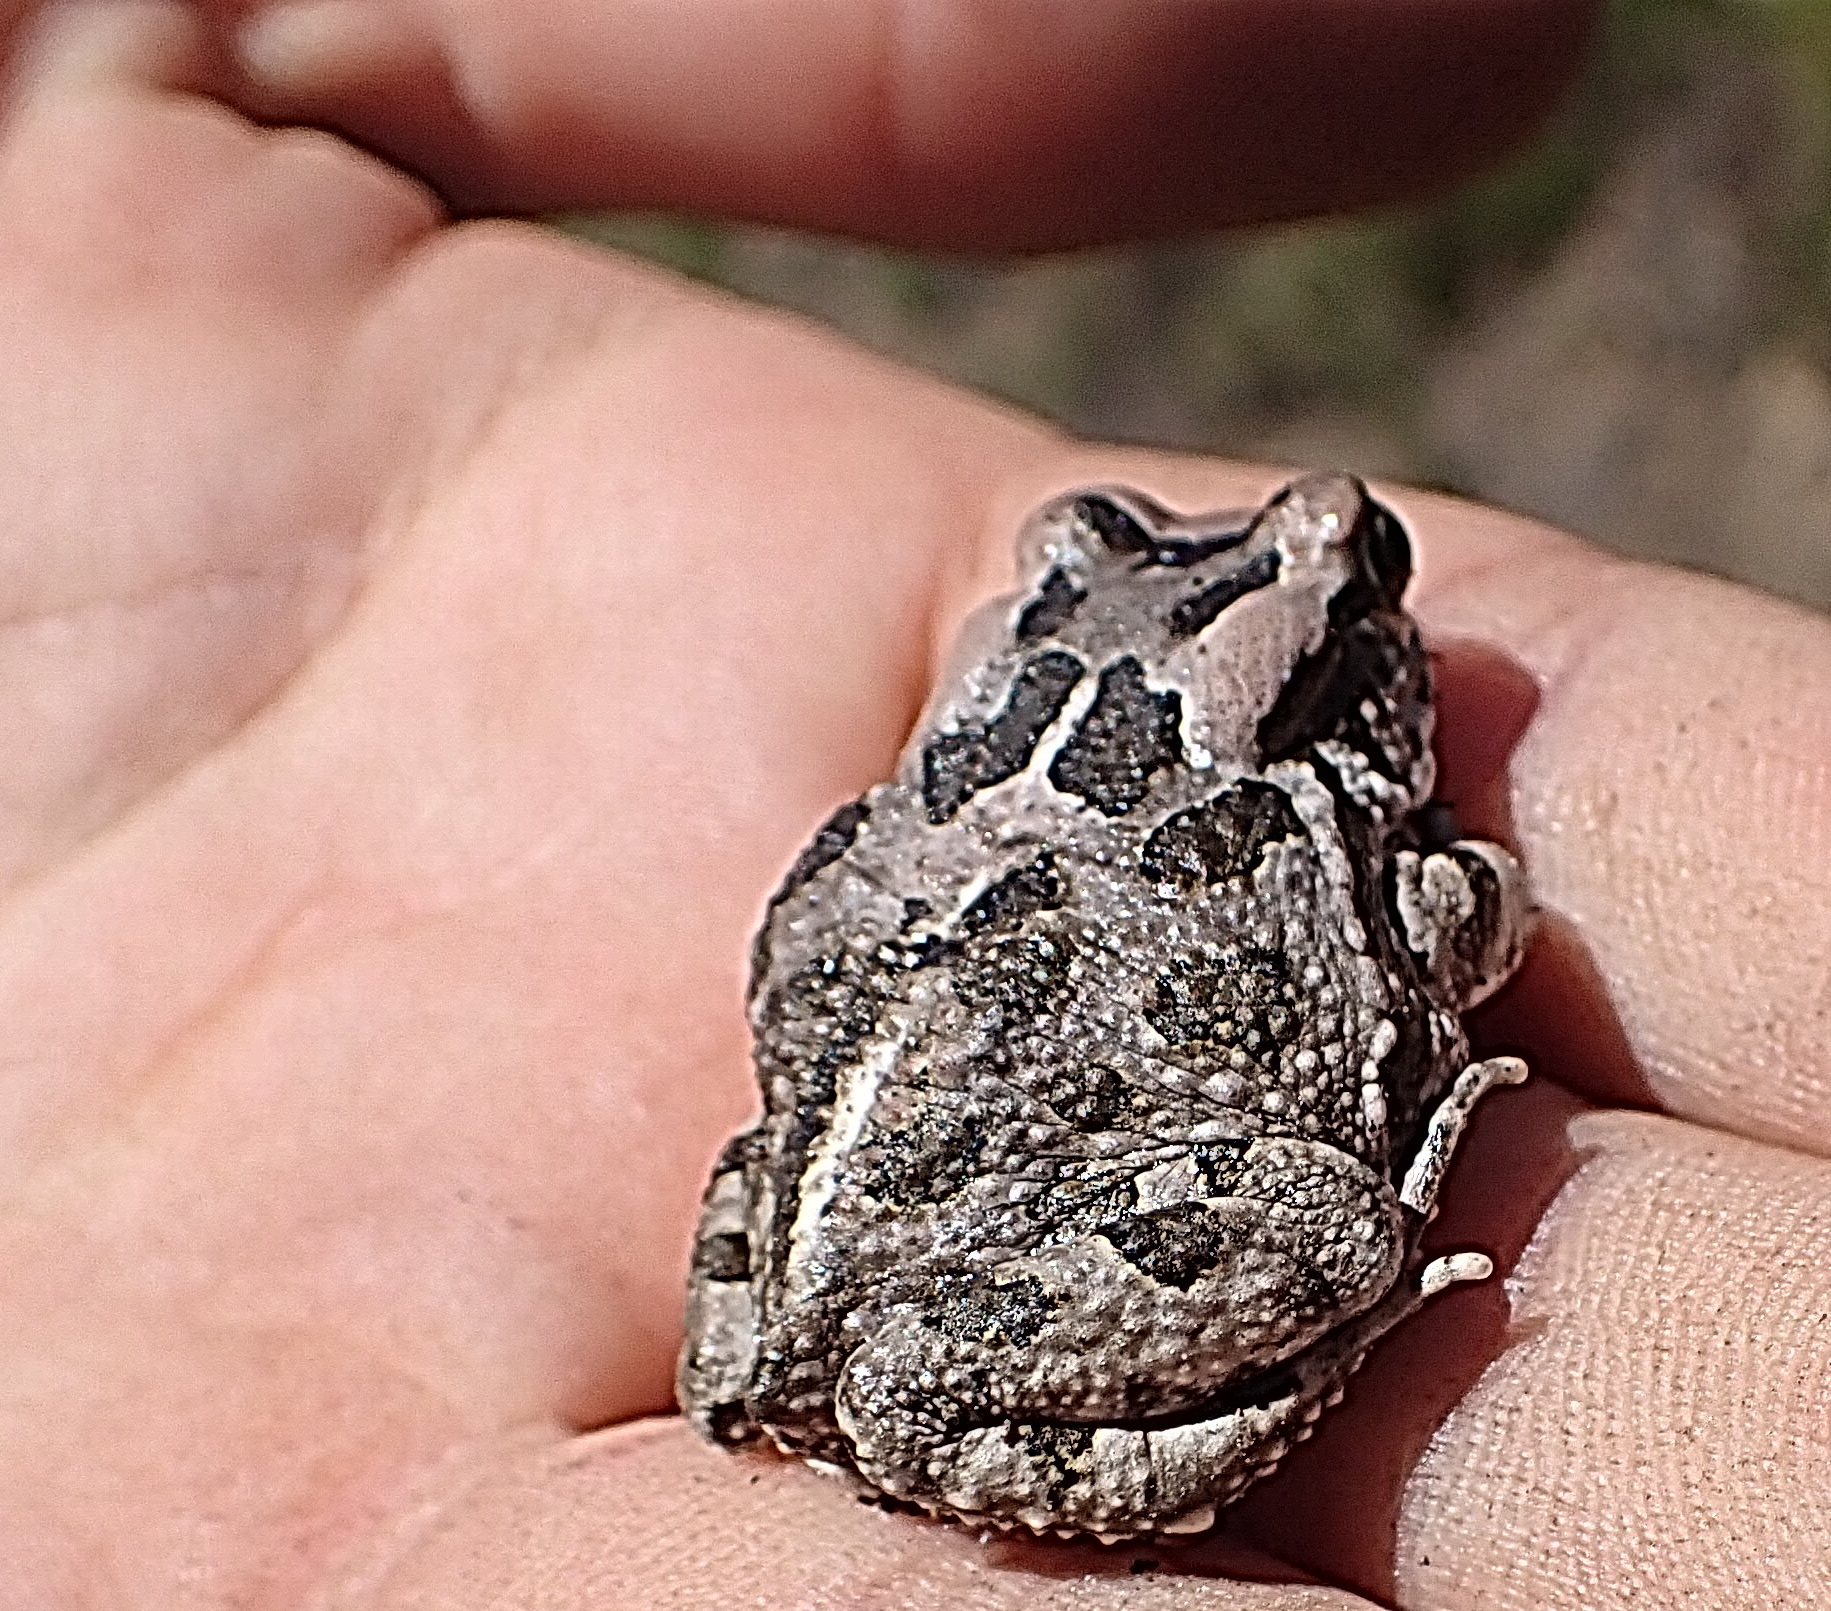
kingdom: Animalia
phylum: Chordata
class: Amphibia
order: Anura
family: Bufonidae
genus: Sclerophrys
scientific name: Sclerophrys capensis
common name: Ranger’s toad
